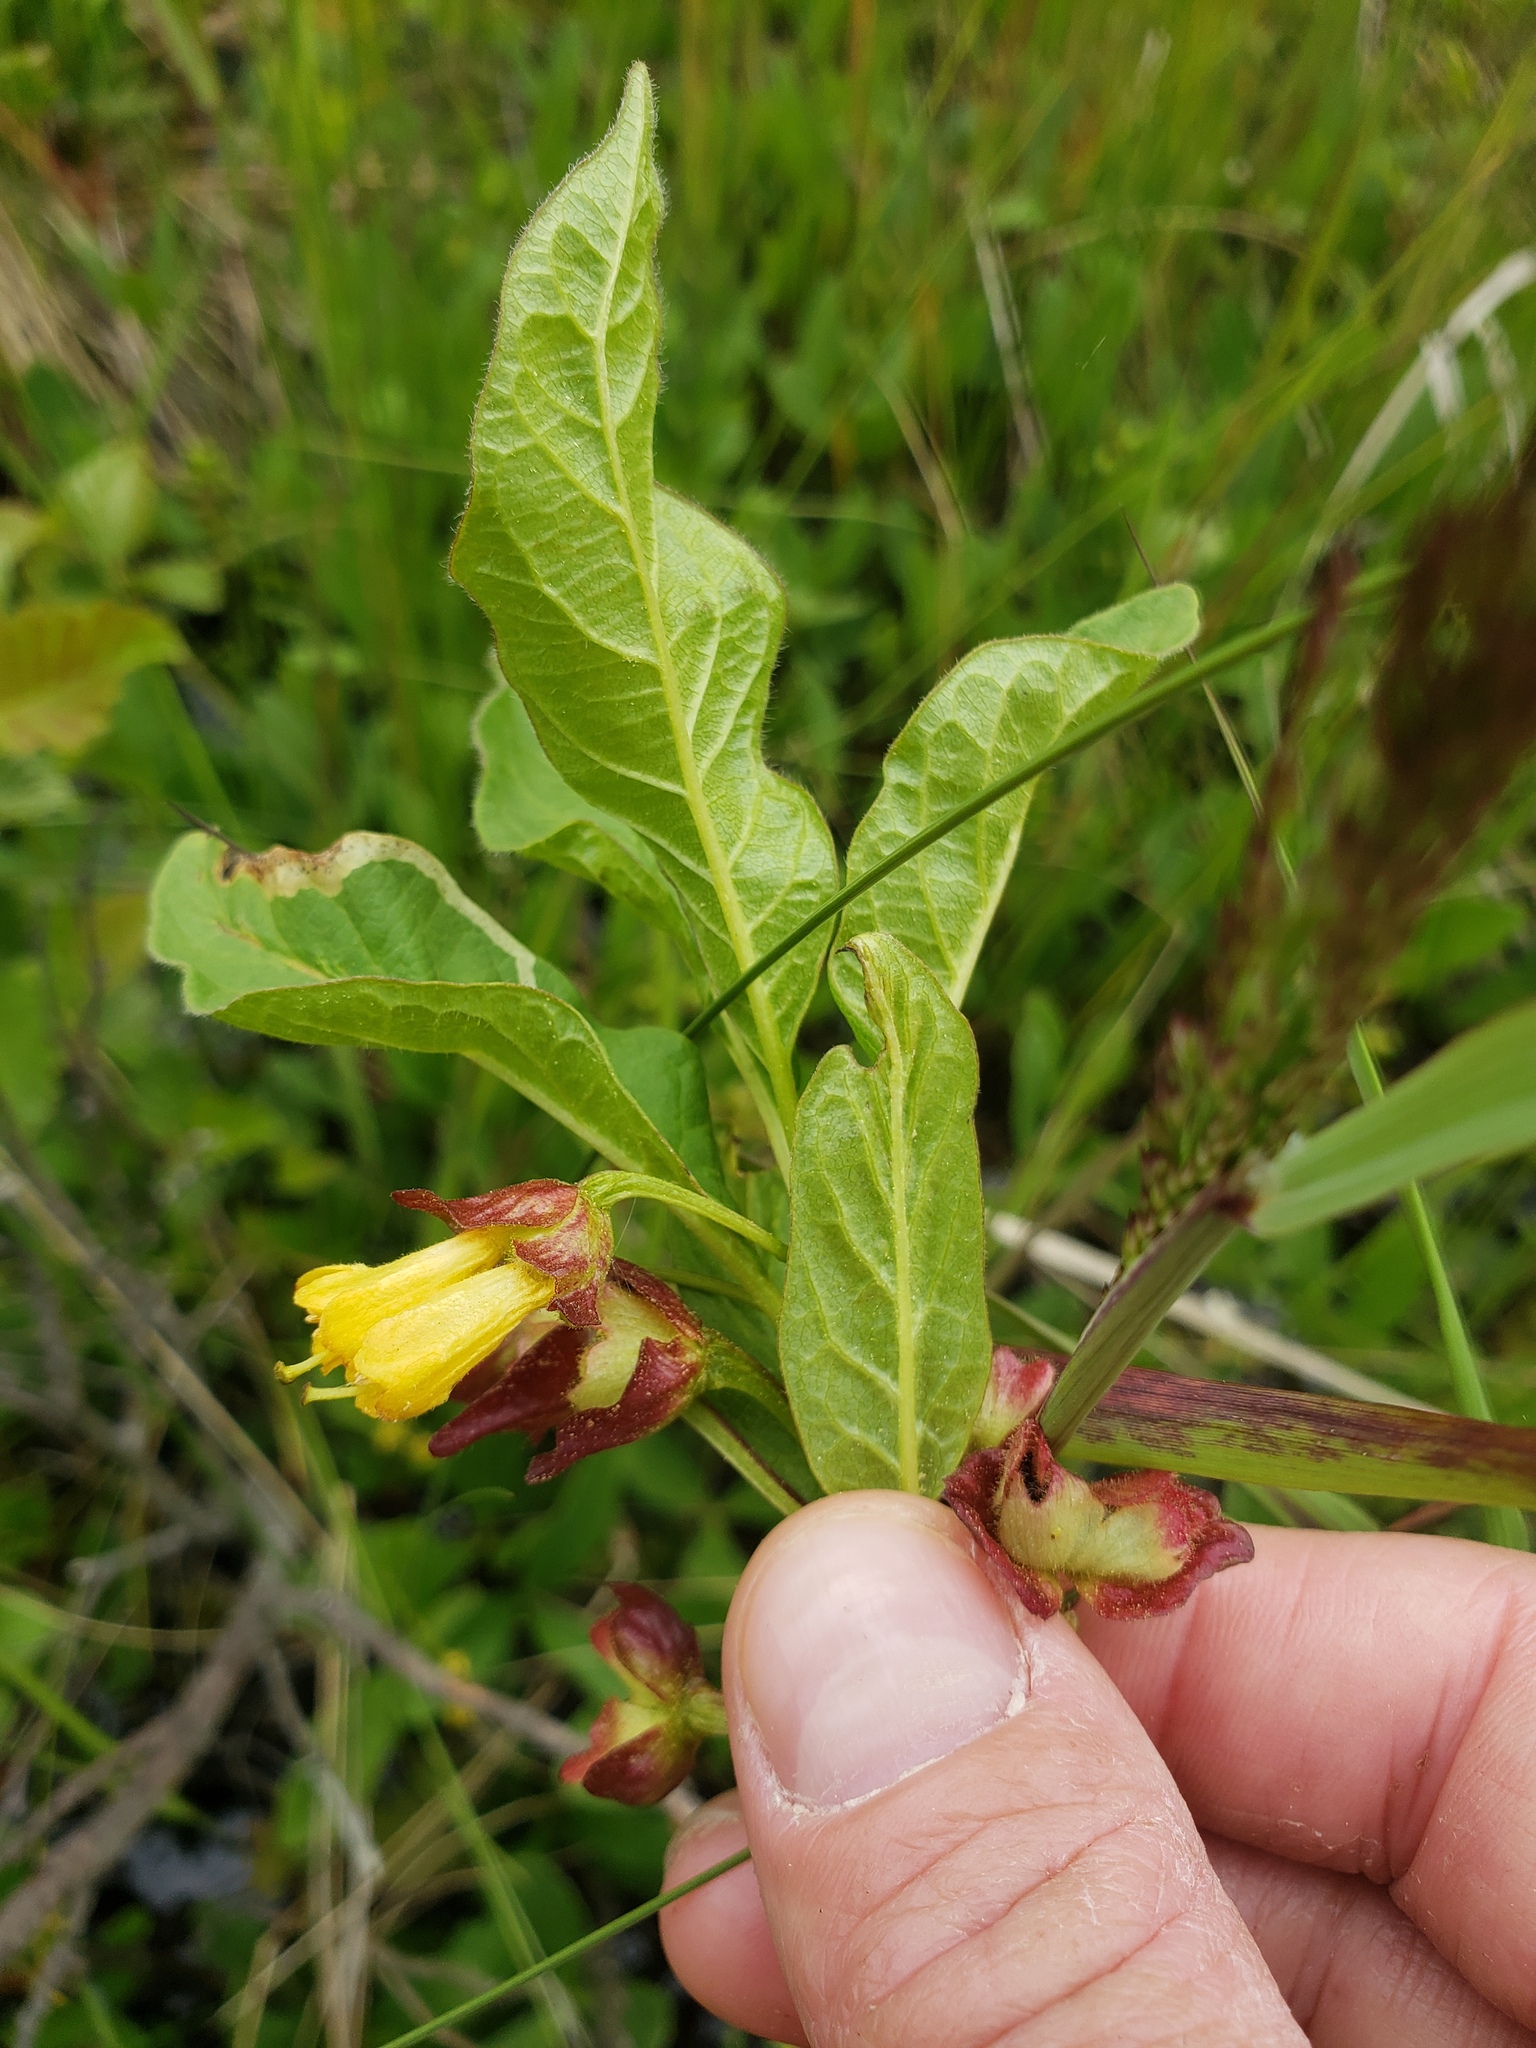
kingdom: Plantae
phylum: Tracheophyta
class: Magnoliopsida
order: Dipsacales
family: Caprifoliaceae
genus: Lonicera
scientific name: Lonicera involucrata
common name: Californian honeysuckle
